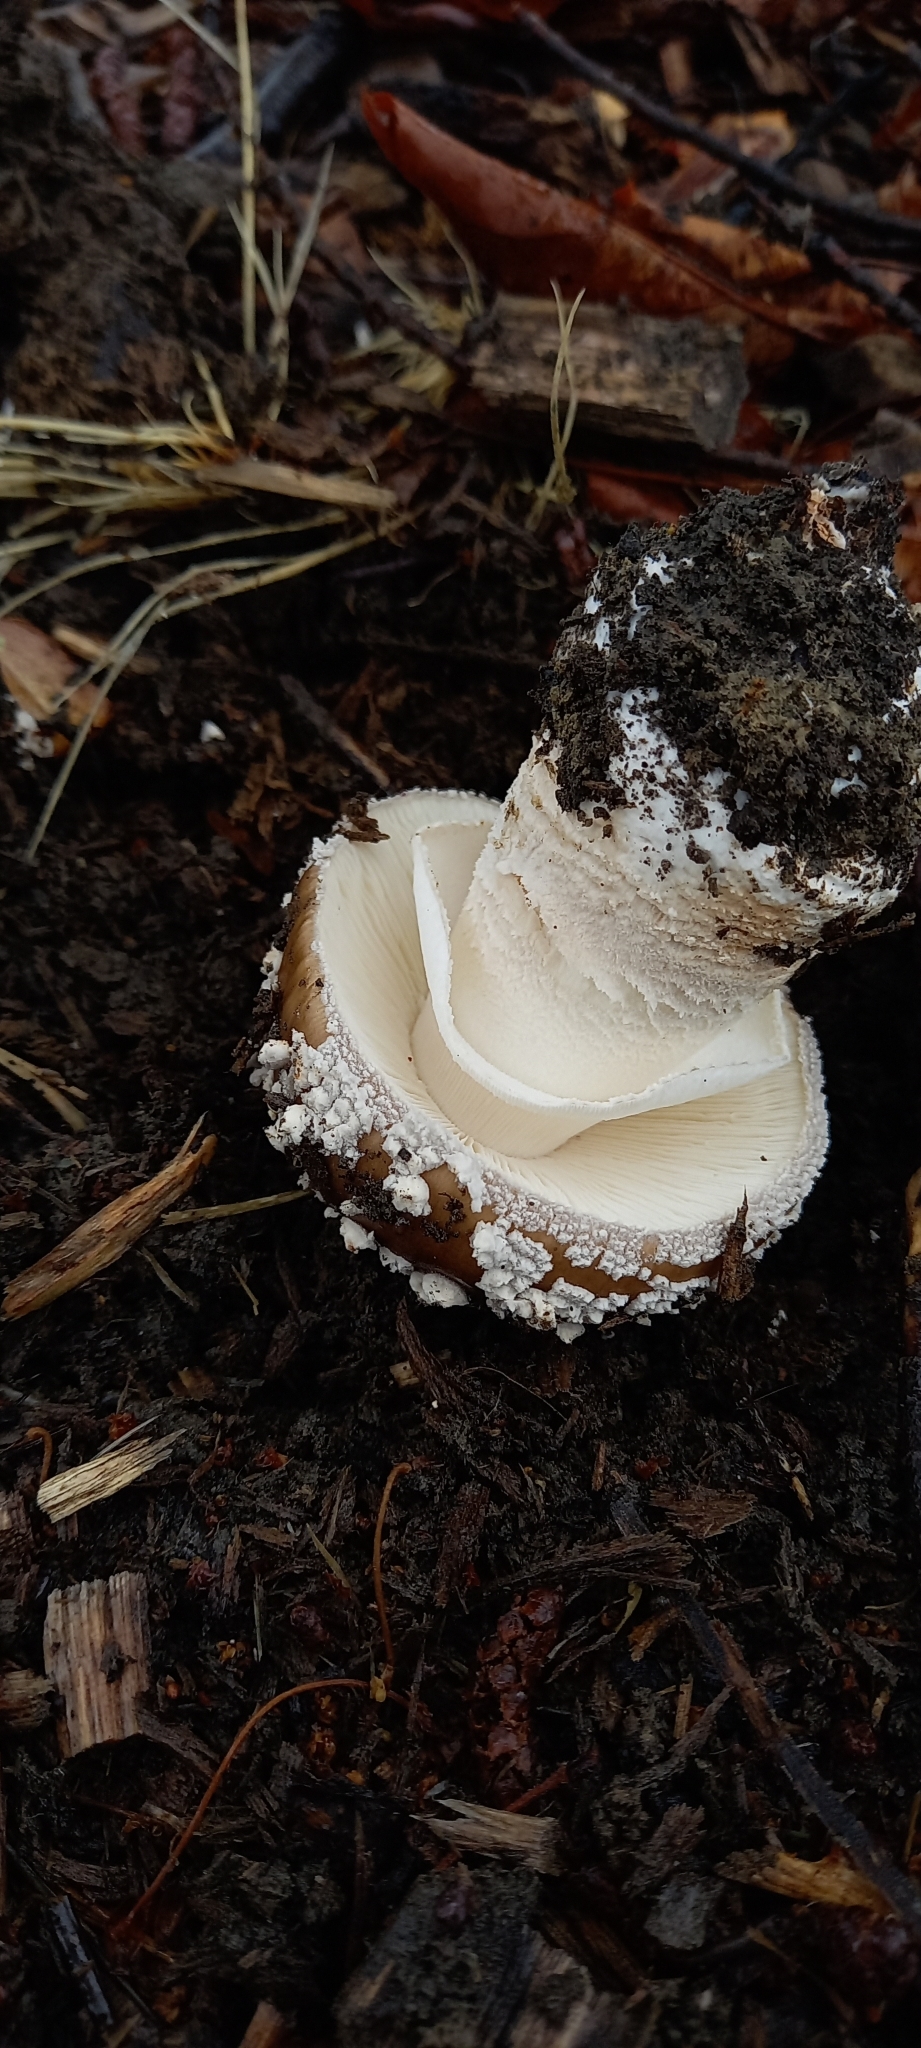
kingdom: Fungi
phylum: Basidiomycota
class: Agaricomycetes
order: Agaricales
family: Amanitaceae
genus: Amanita
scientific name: Amanita excelsa
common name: European false blusher
